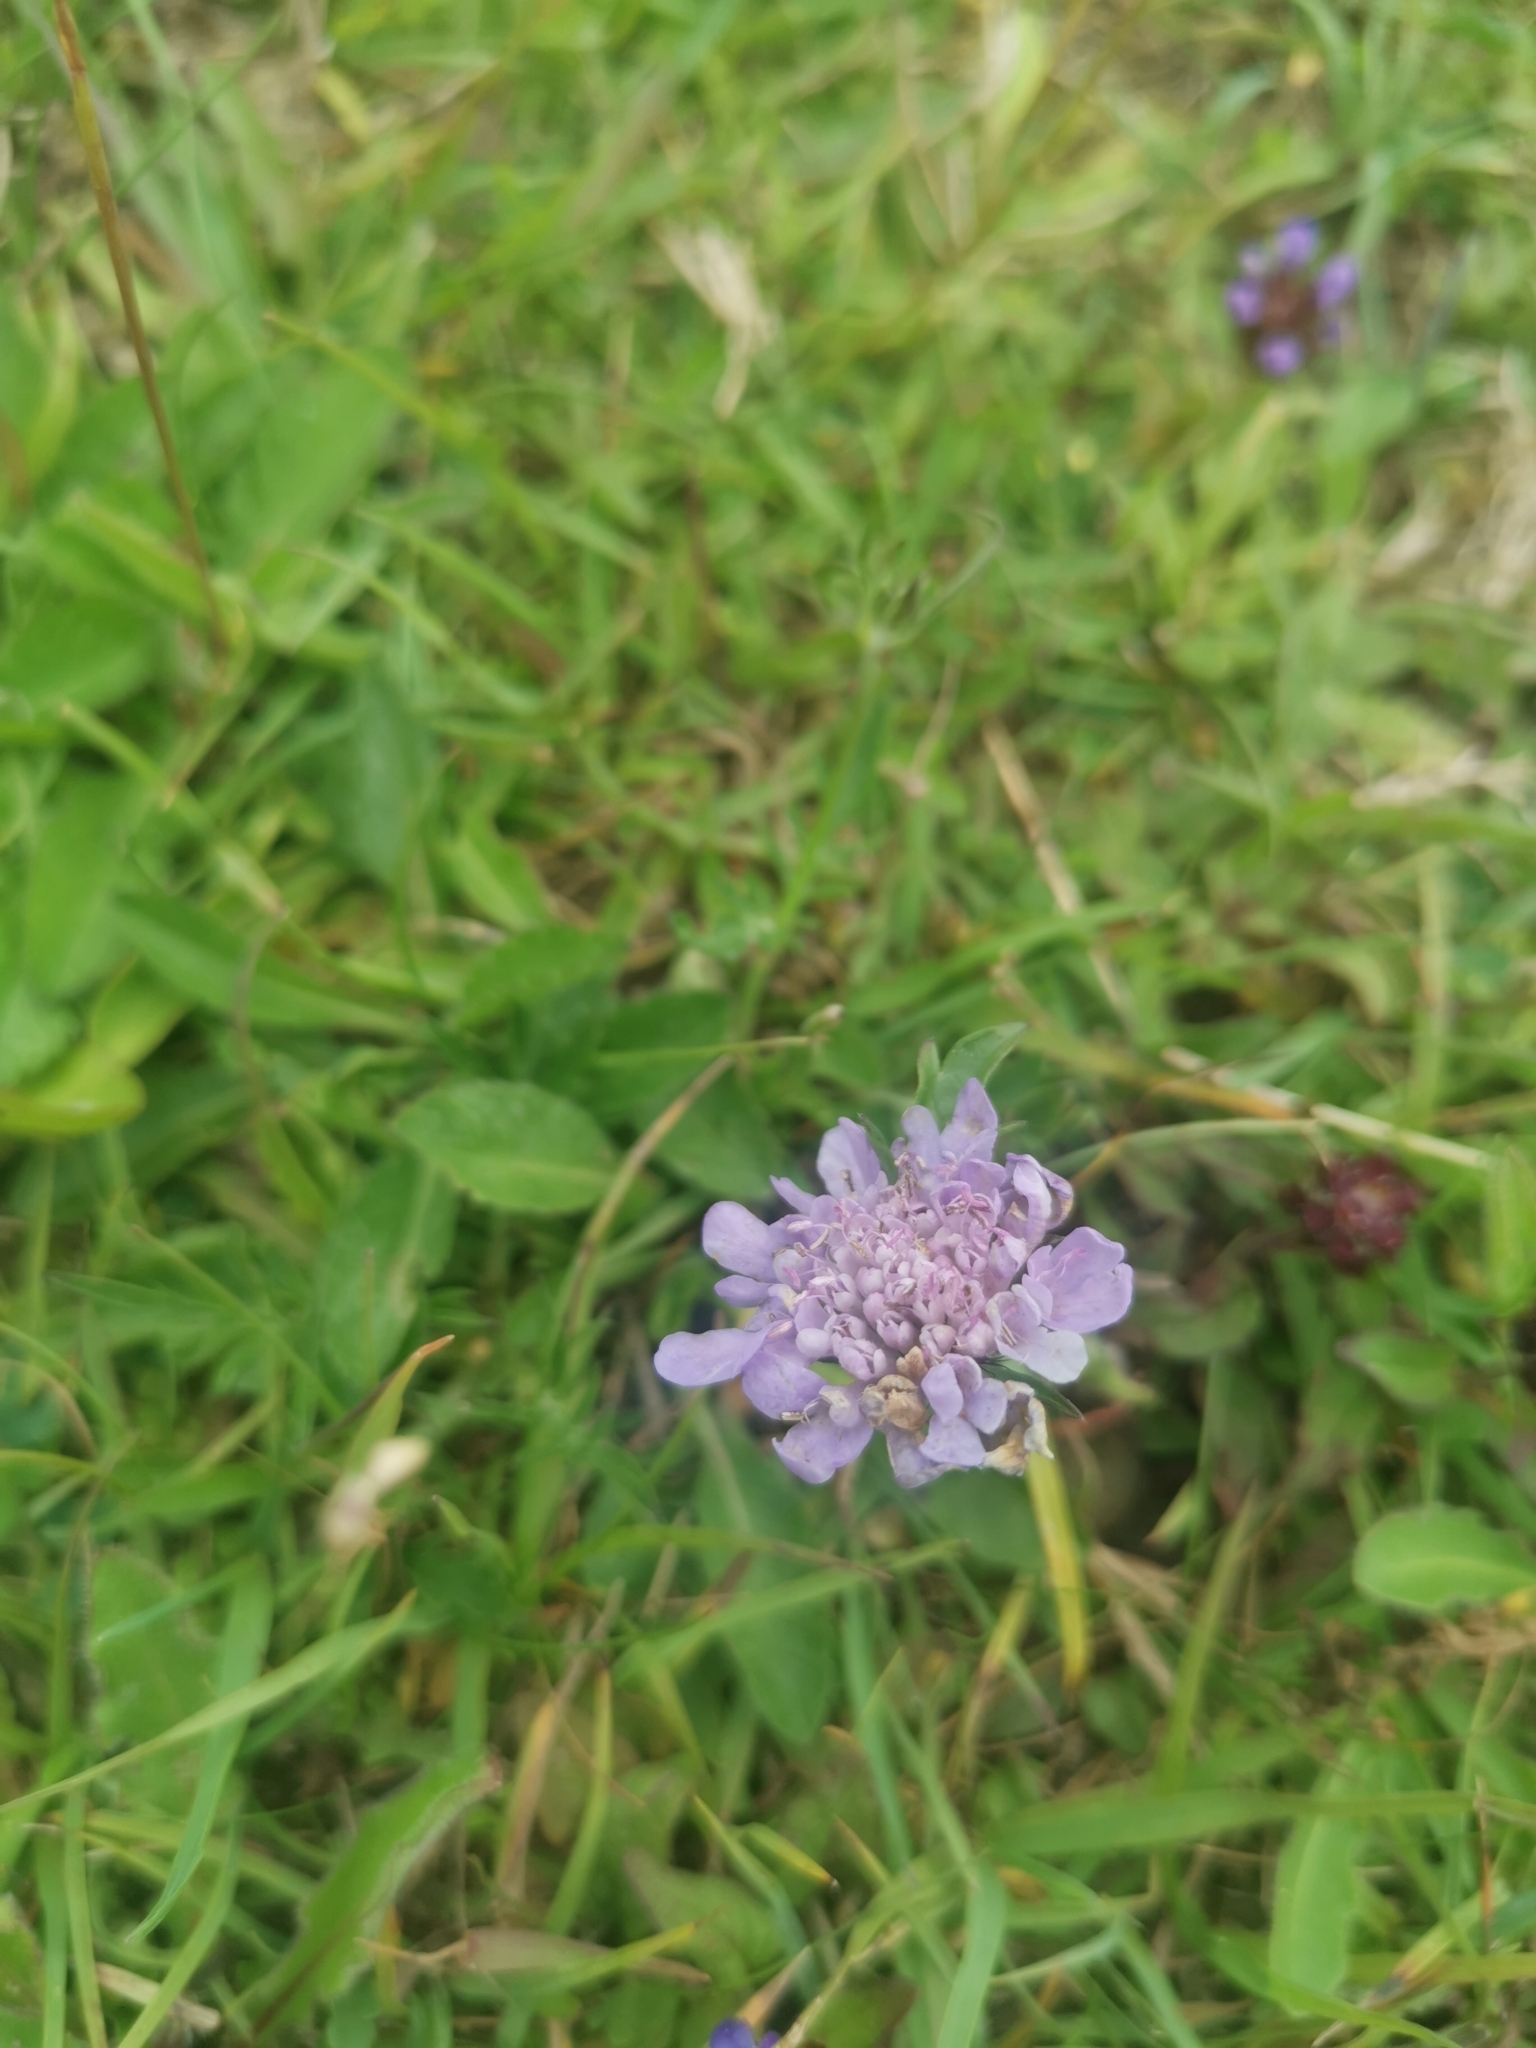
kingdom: Plantae
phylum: Tracheophyta
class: Magnoliopsida
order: Dipsacales
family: Caprifoliaceae
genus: Knautia
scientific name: Knautia arvensis
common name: Field scabiosa
